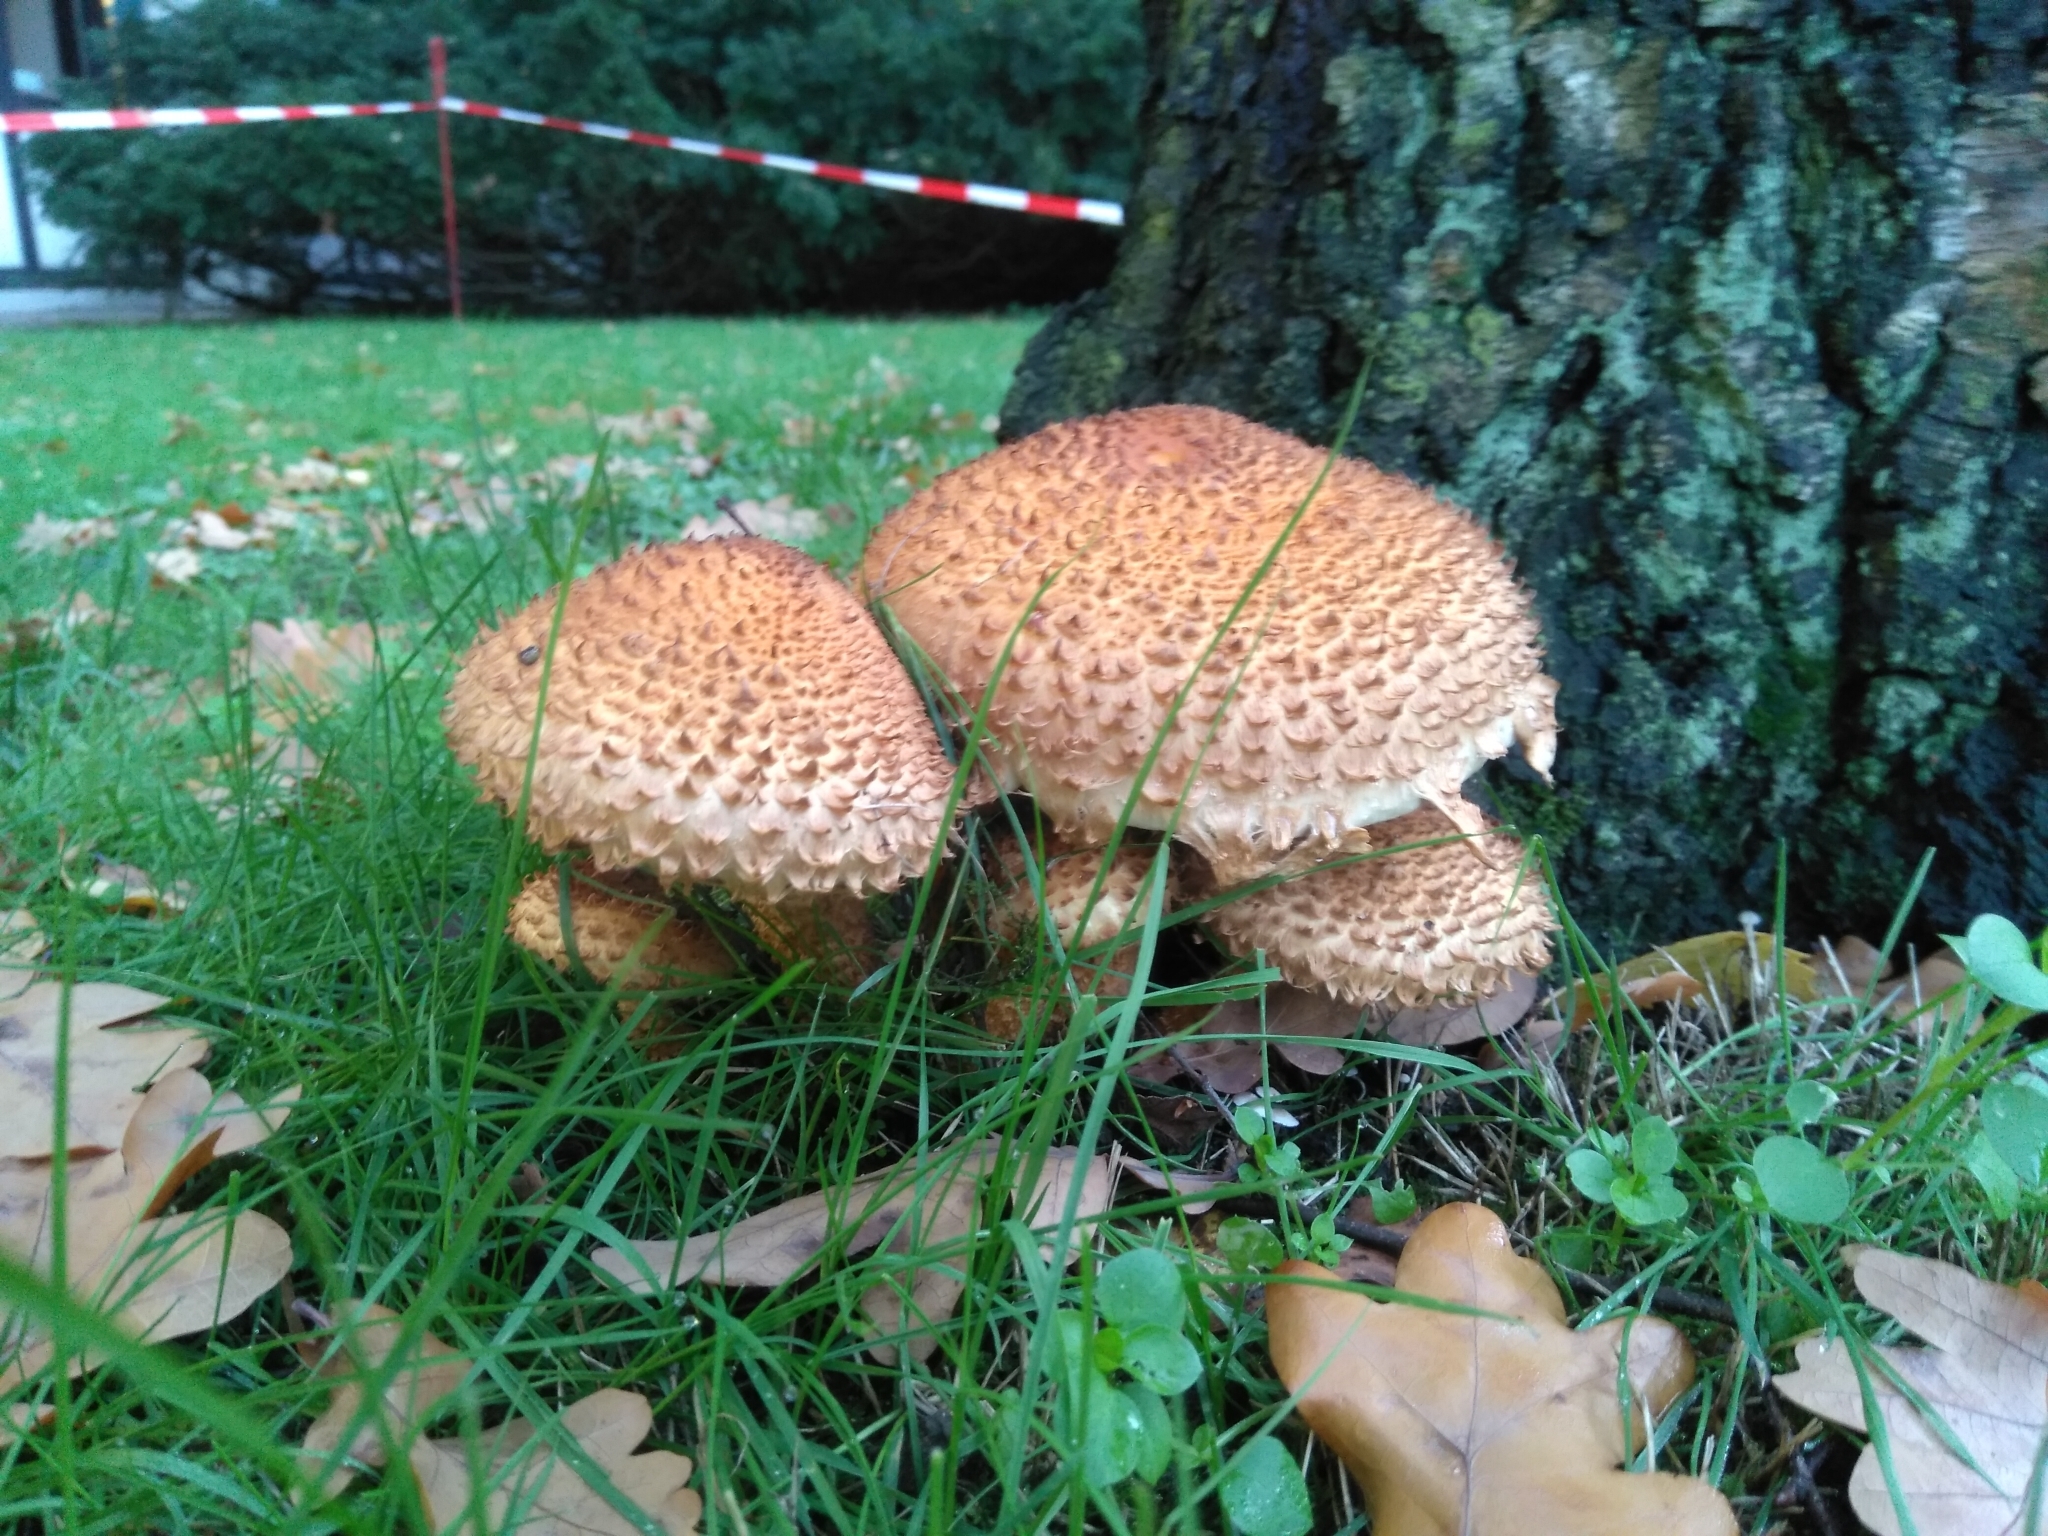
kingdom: Fungi
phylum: Basidiomycota
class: Agaricomycetes
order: Agaricales
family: Strophariaceae
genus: Pholiota
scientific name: Pholiota squarrosa
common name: Shaggy pholiota
